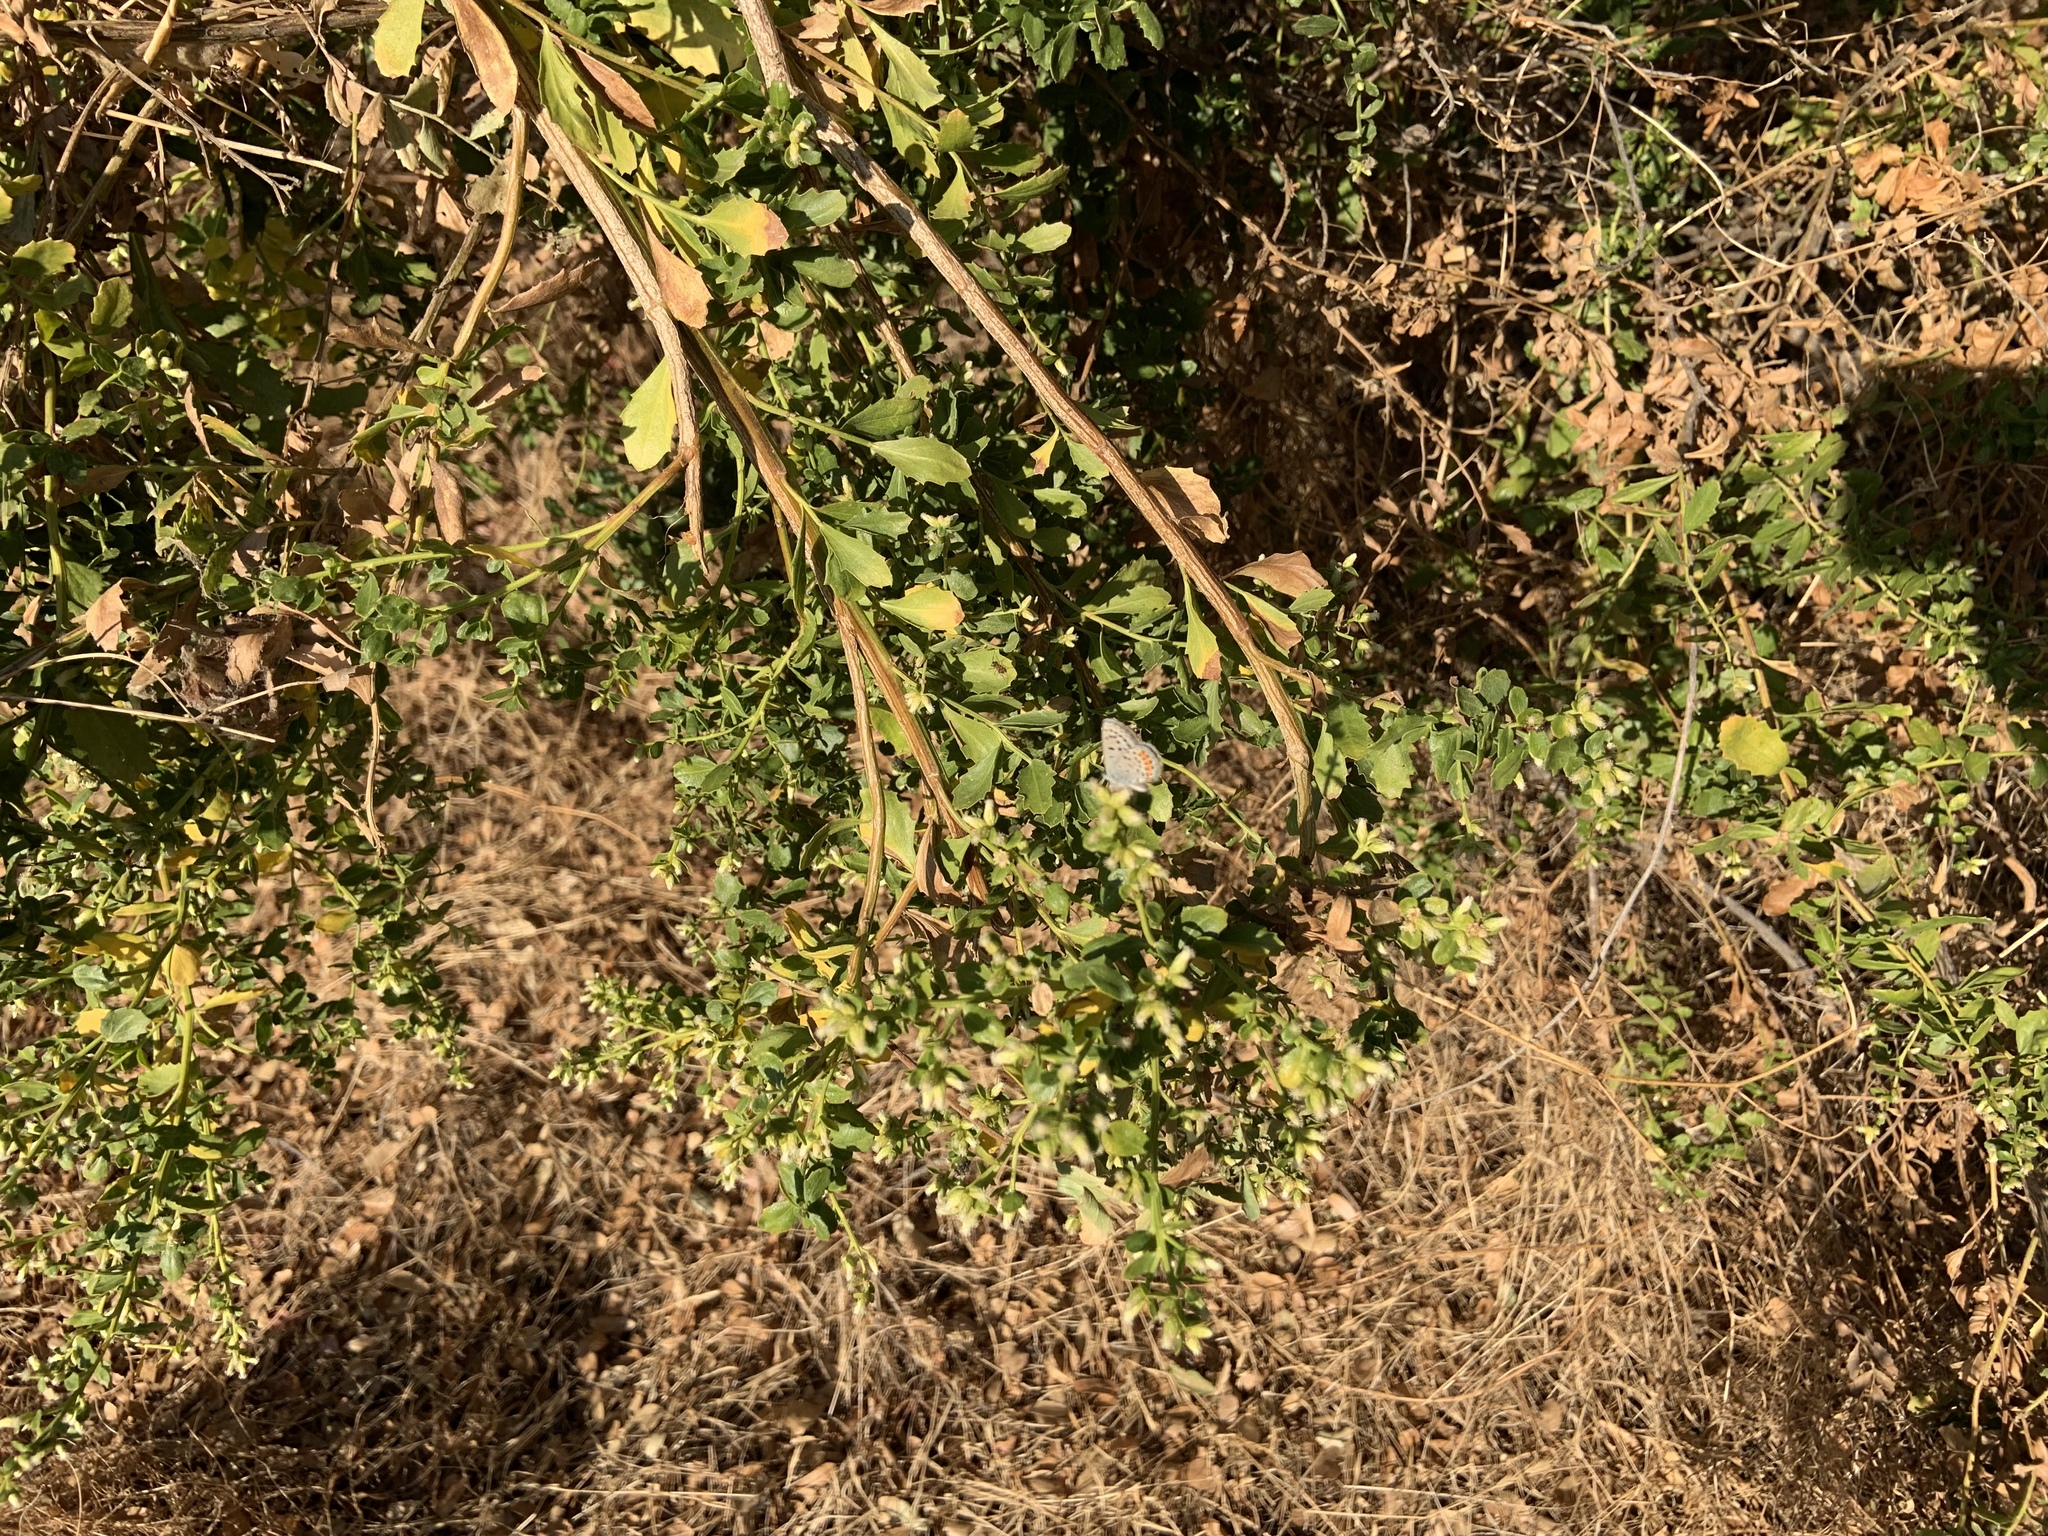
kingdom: Animalia
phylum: Arthropoda
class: Insecta
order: Lepidoptera
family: Lycaenidae
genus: Icaricia
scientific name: Icaricia acmon
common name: Acmon blue
